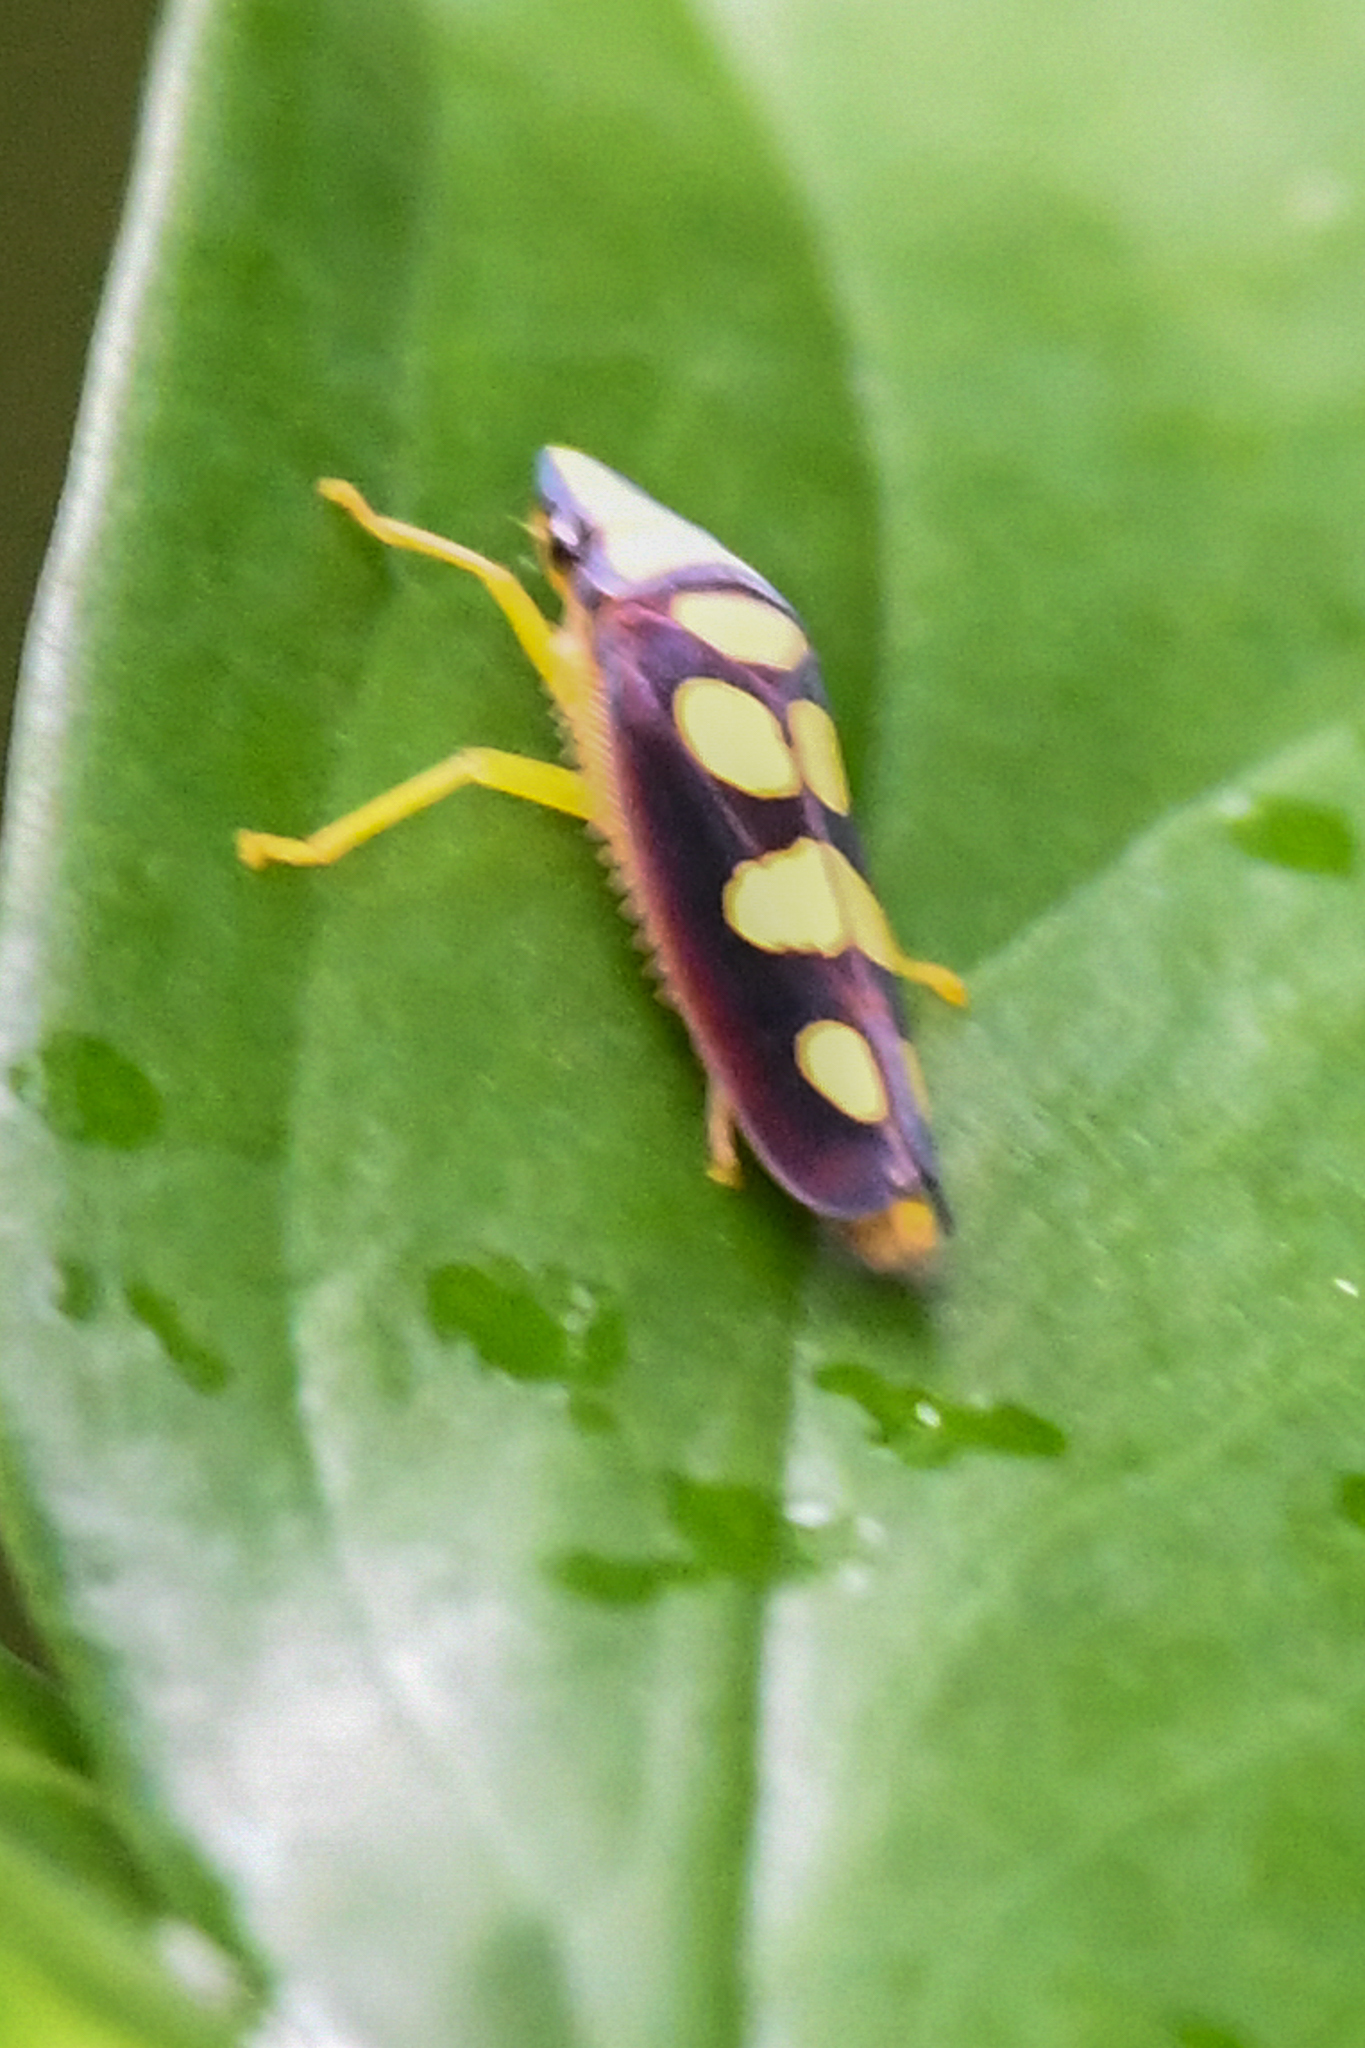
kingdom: Animalia
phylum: Arthropoda
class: Insecta
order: Hemiptera
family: Cicadellidae
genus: Platygonia
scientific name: Platygonia spatulata
